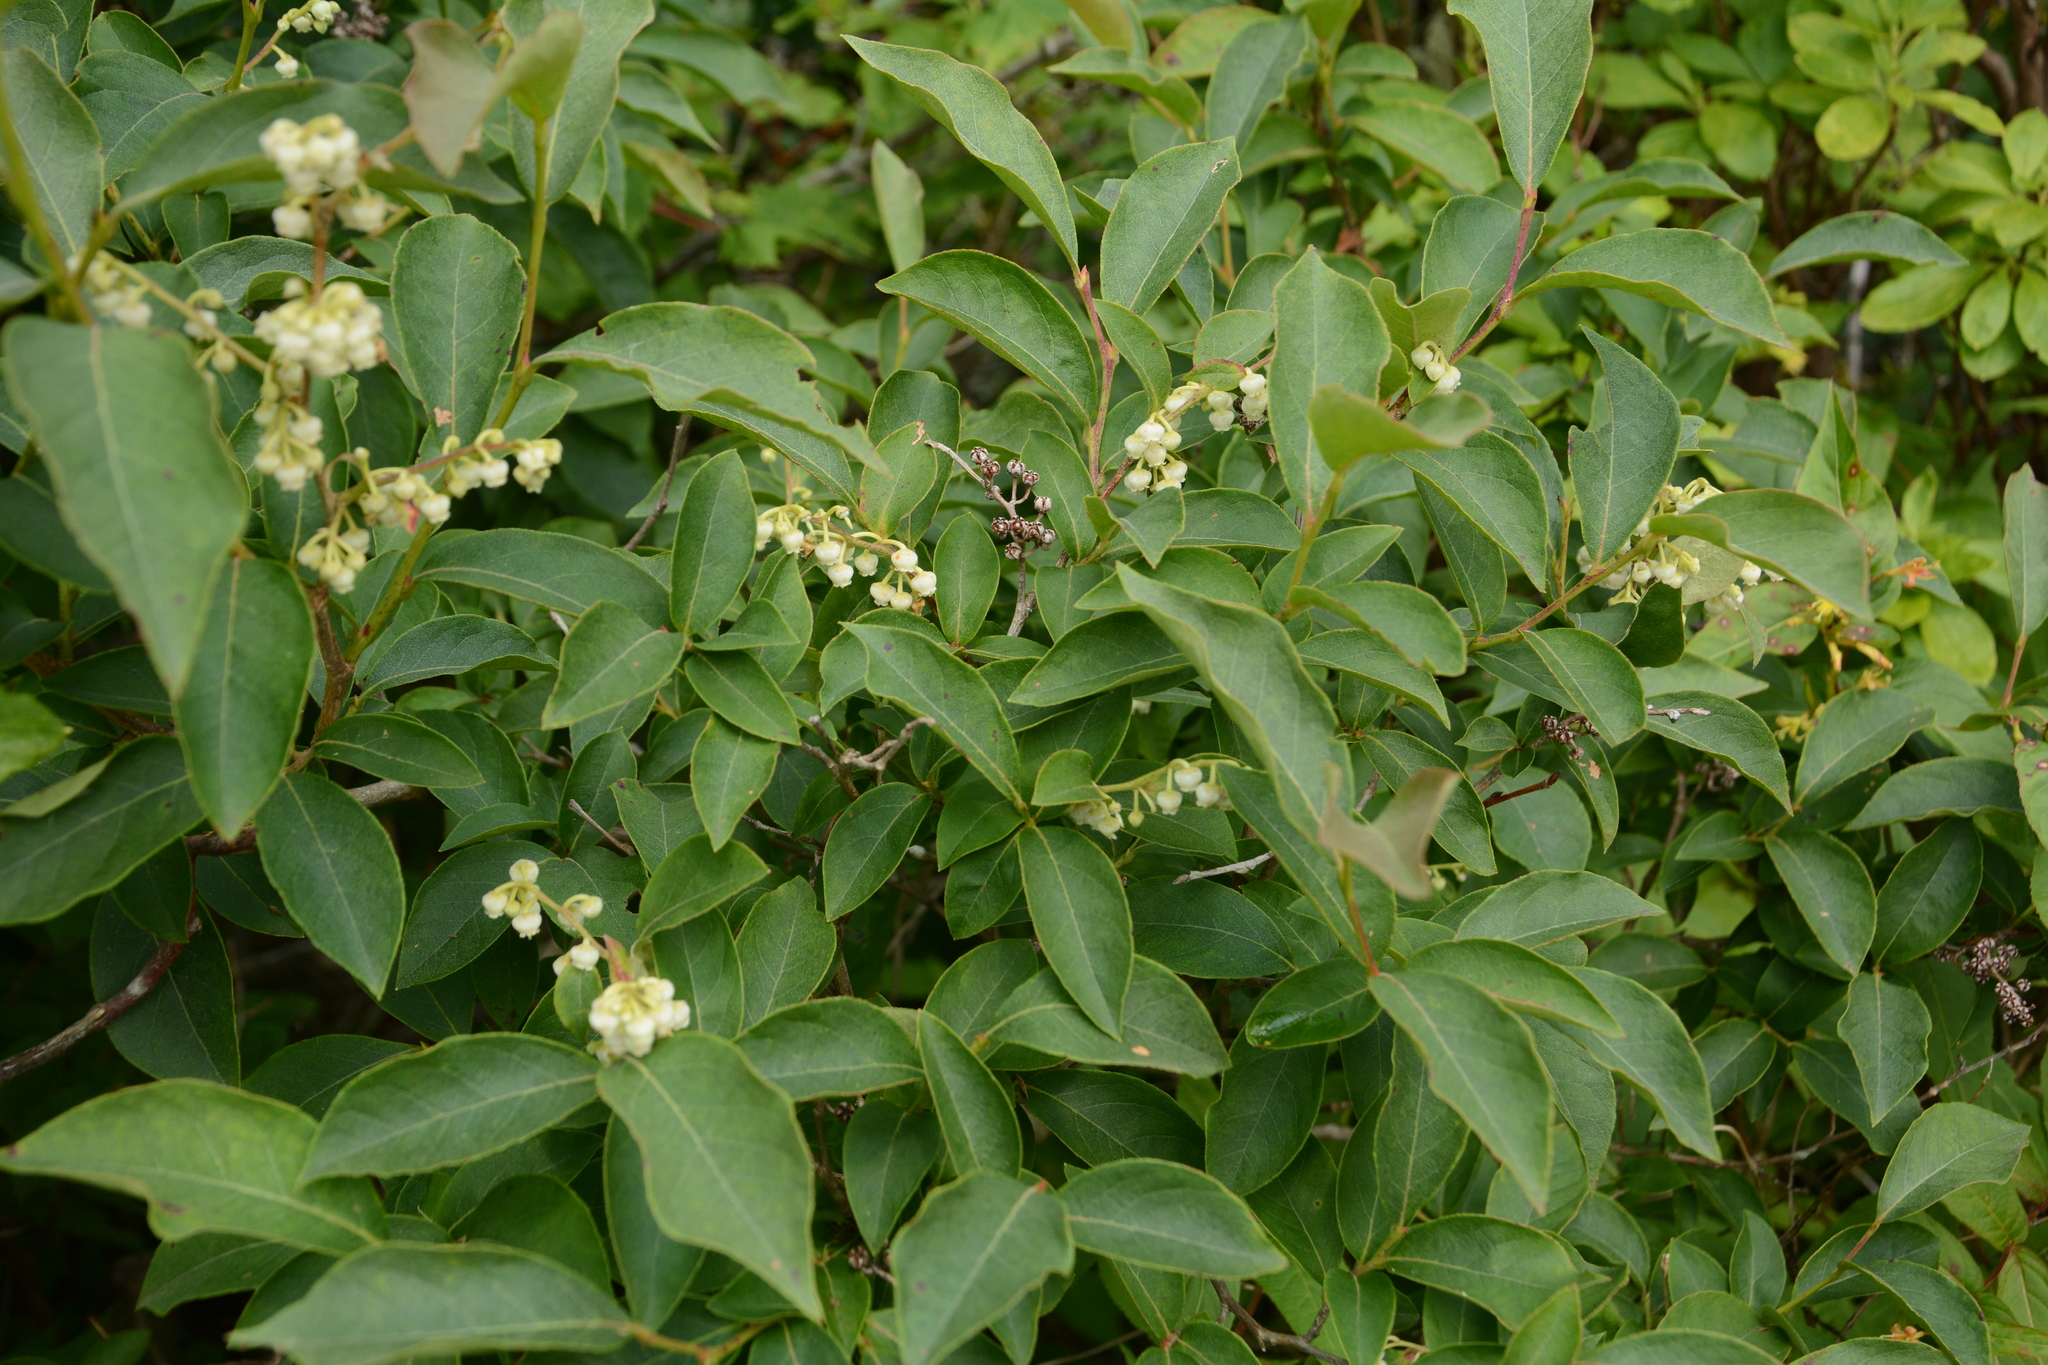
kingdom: Plantae
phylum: Tracheophyta
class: Magnoliopsida
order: Ericales
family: Ericaceae
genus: Lyonia
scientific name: Lyonia ligustrina
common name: Maleberry
